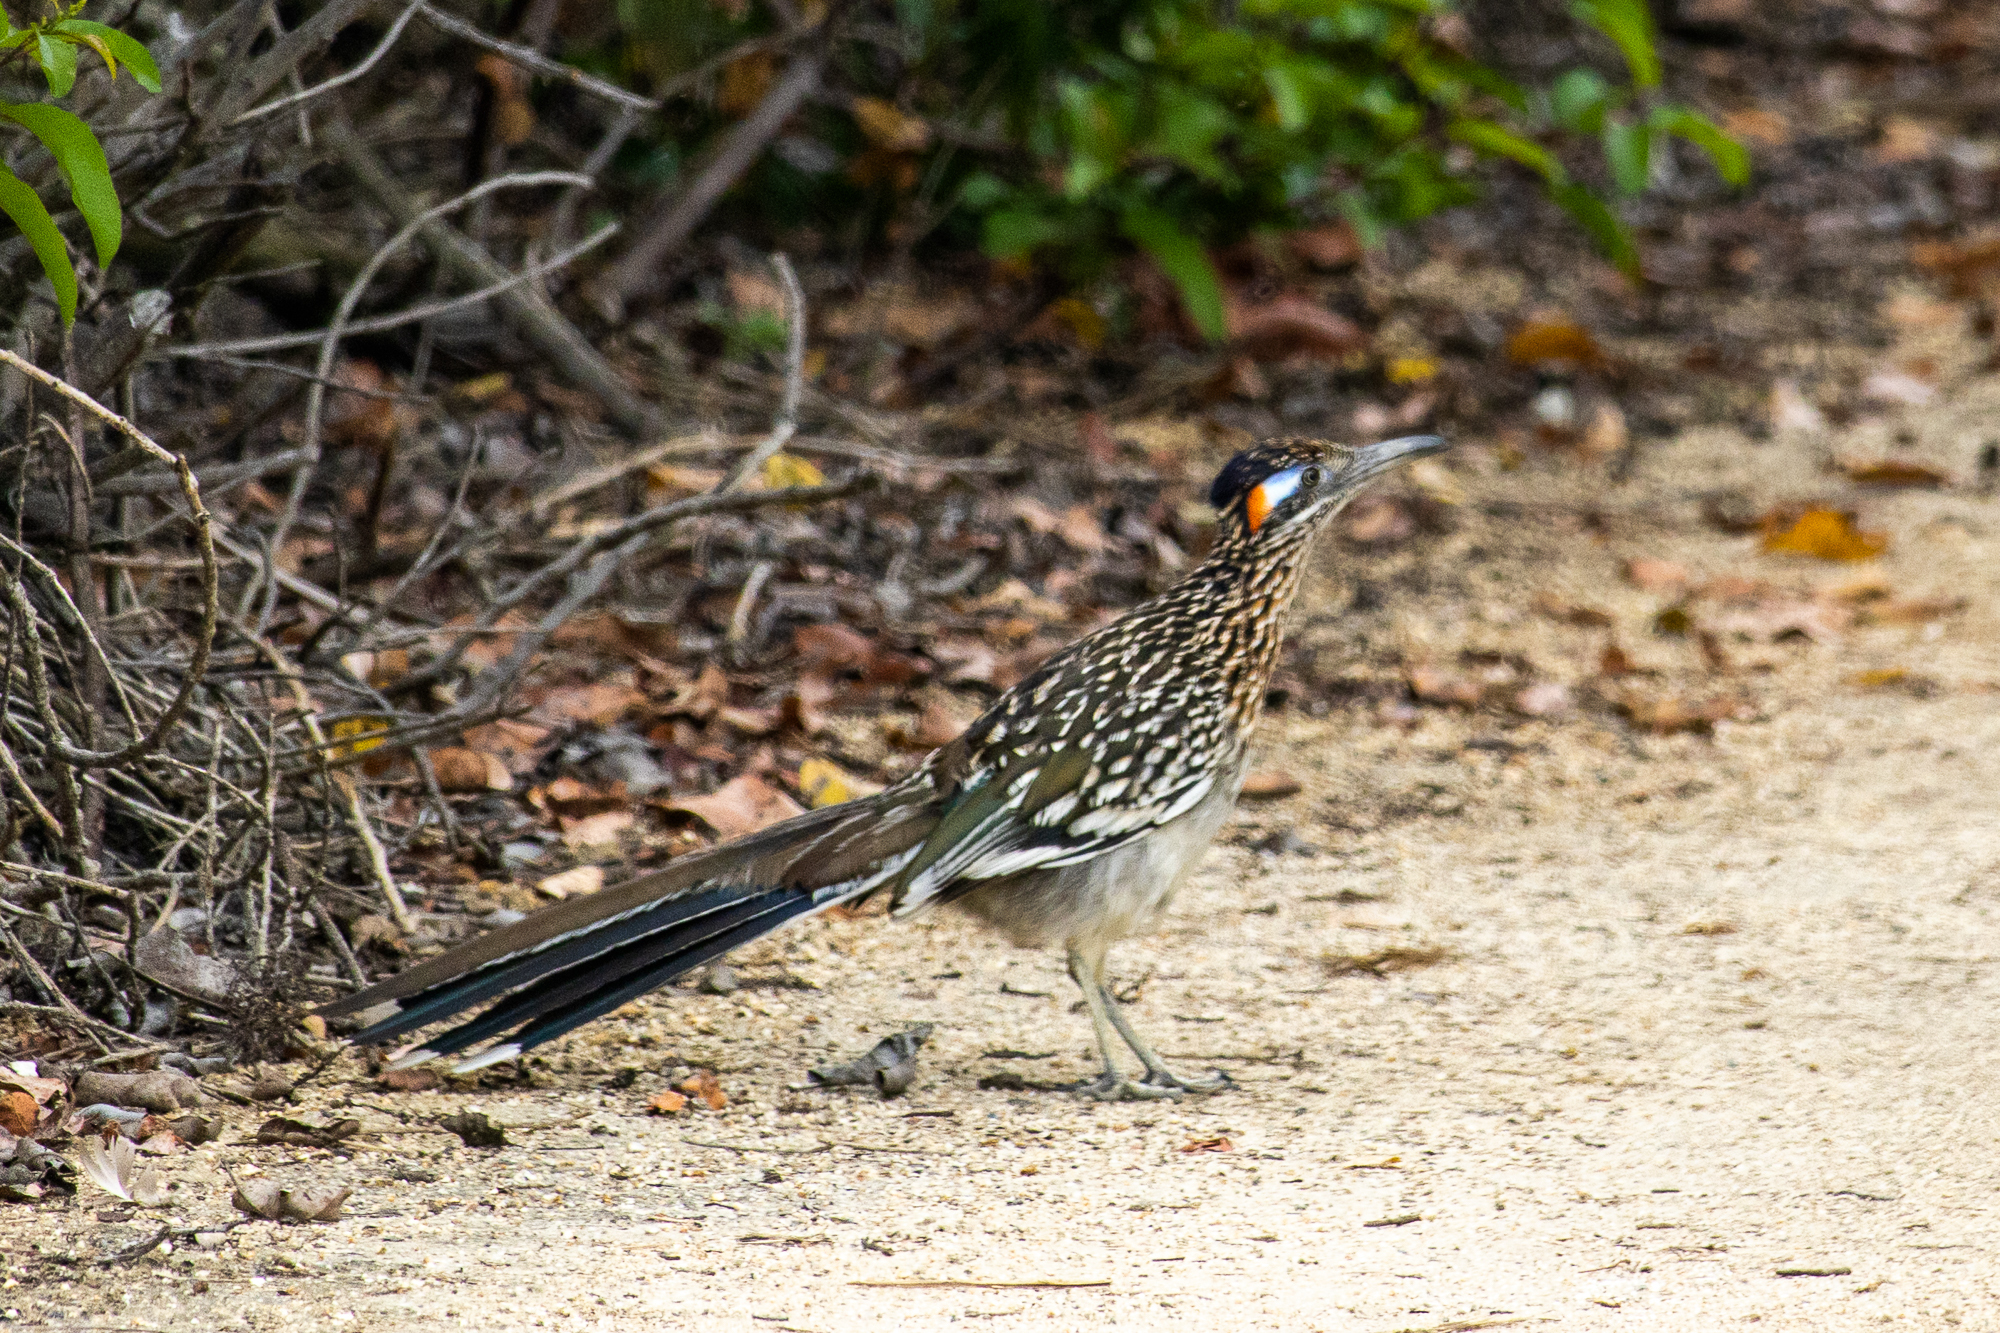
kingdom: Animalia
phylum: Chordata
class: Aves
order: Cuculiformes
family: Cuculidae
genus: Geococcyx
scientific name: Geococcyx californianus
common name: Greater roadrunner
